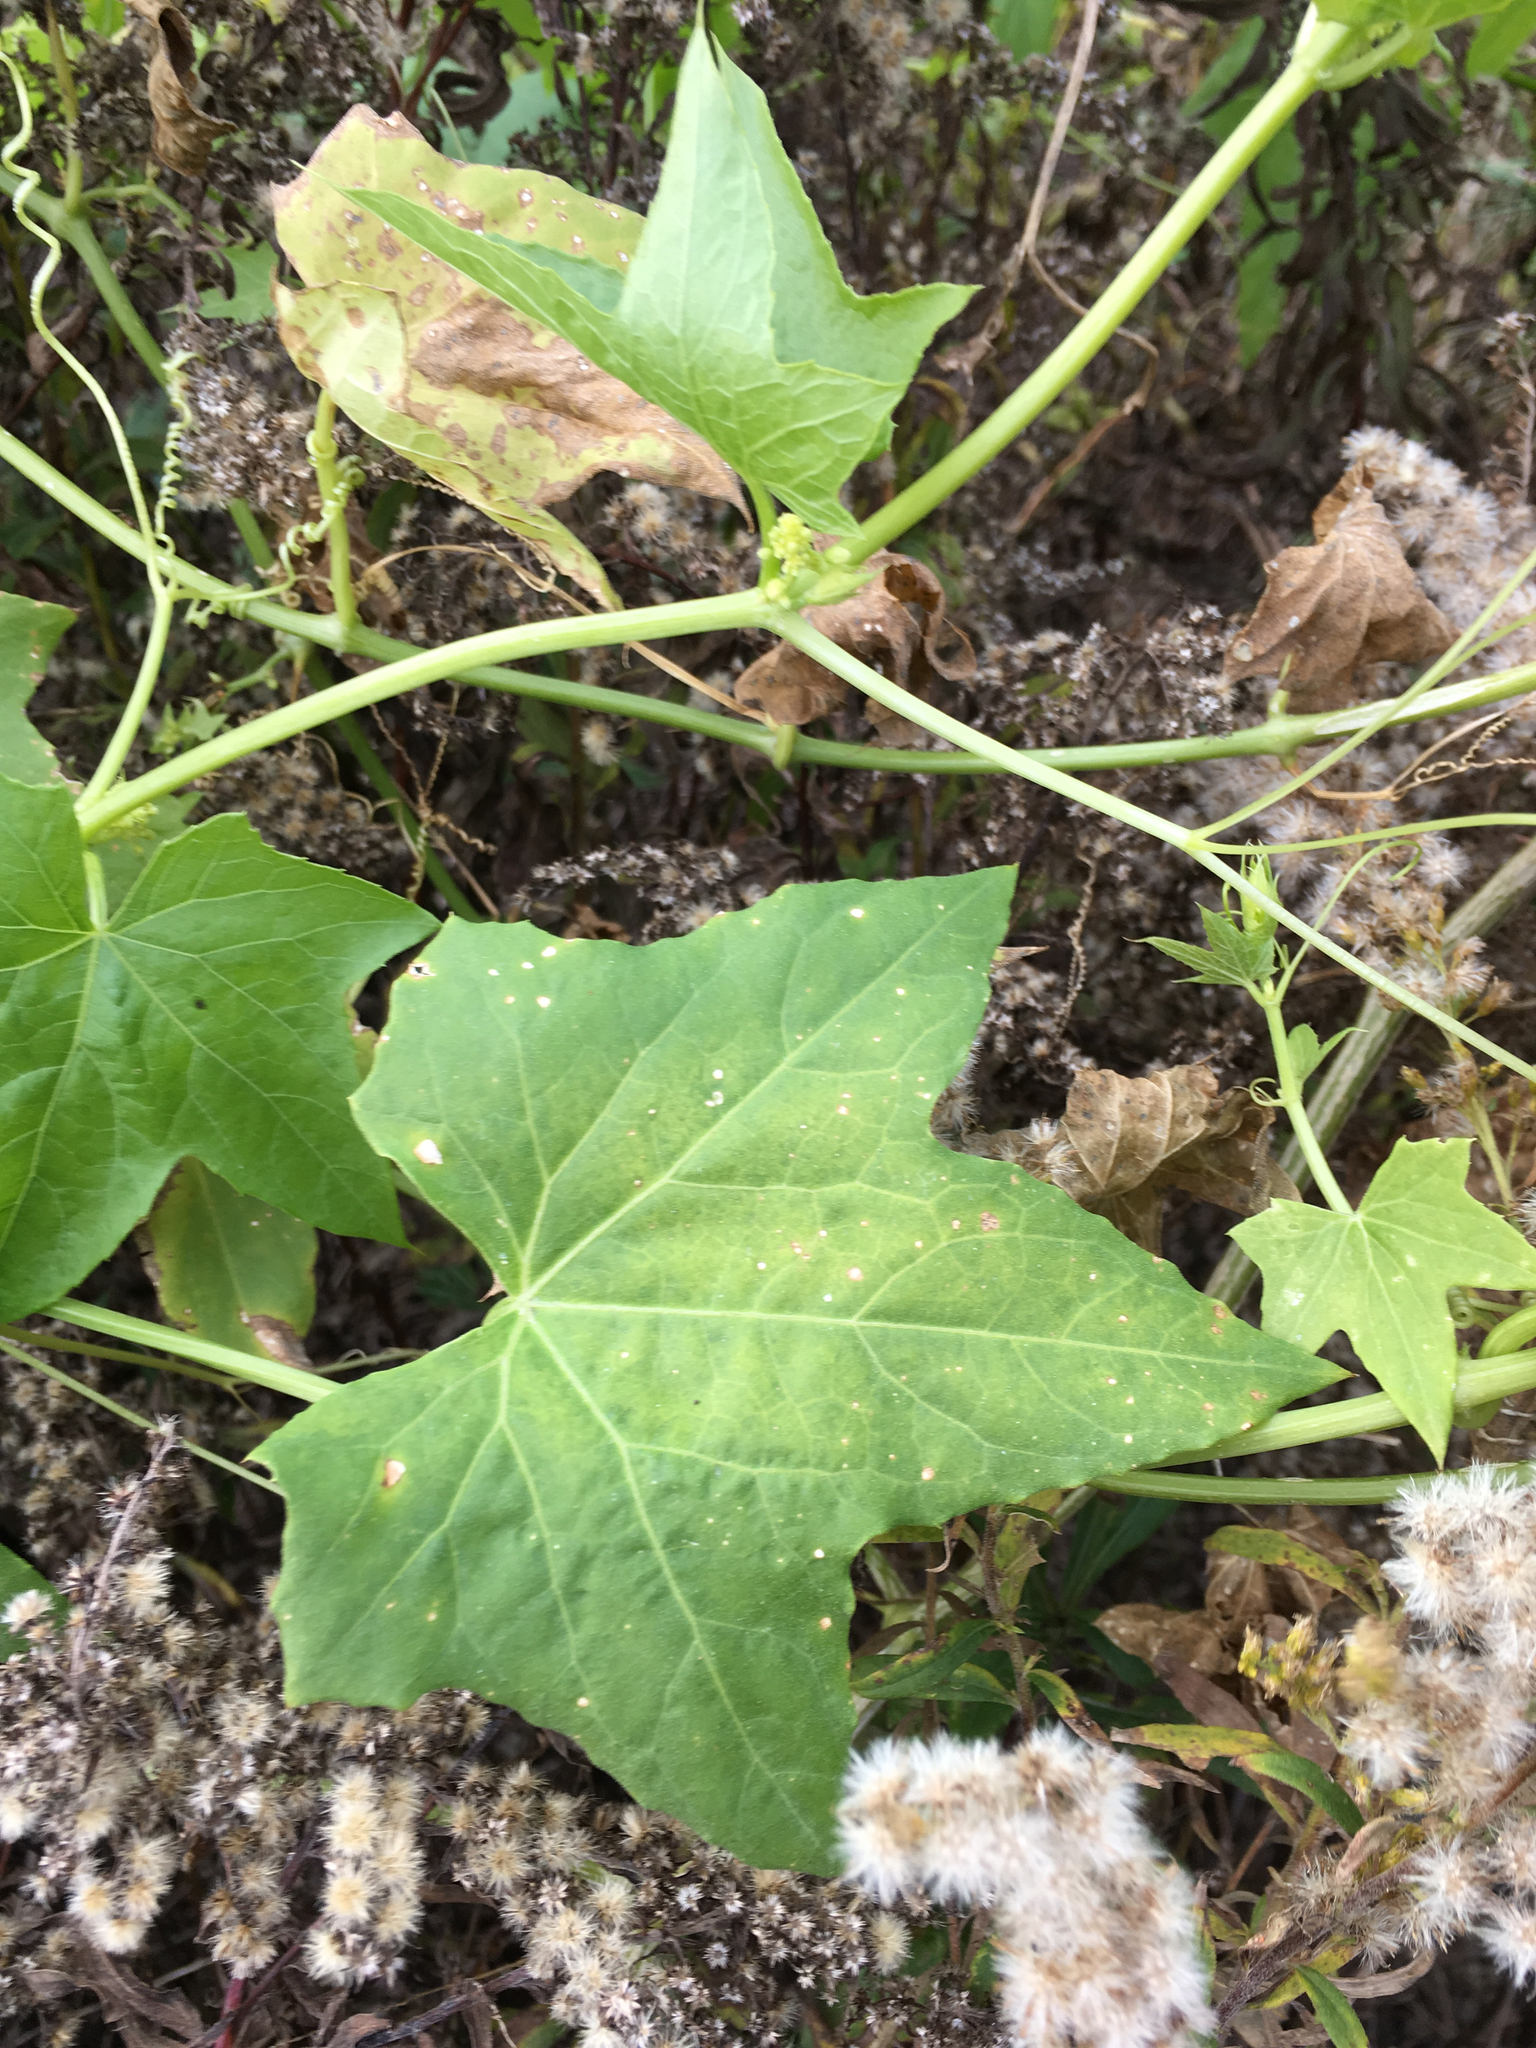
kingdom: Plantae
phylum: Tracheophyta
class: Magnoliopsida
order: Cucurbitales
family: Cucurbitaceae
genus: Echinocystis
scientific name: Echinocystis lobata
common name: Wild cucumber
